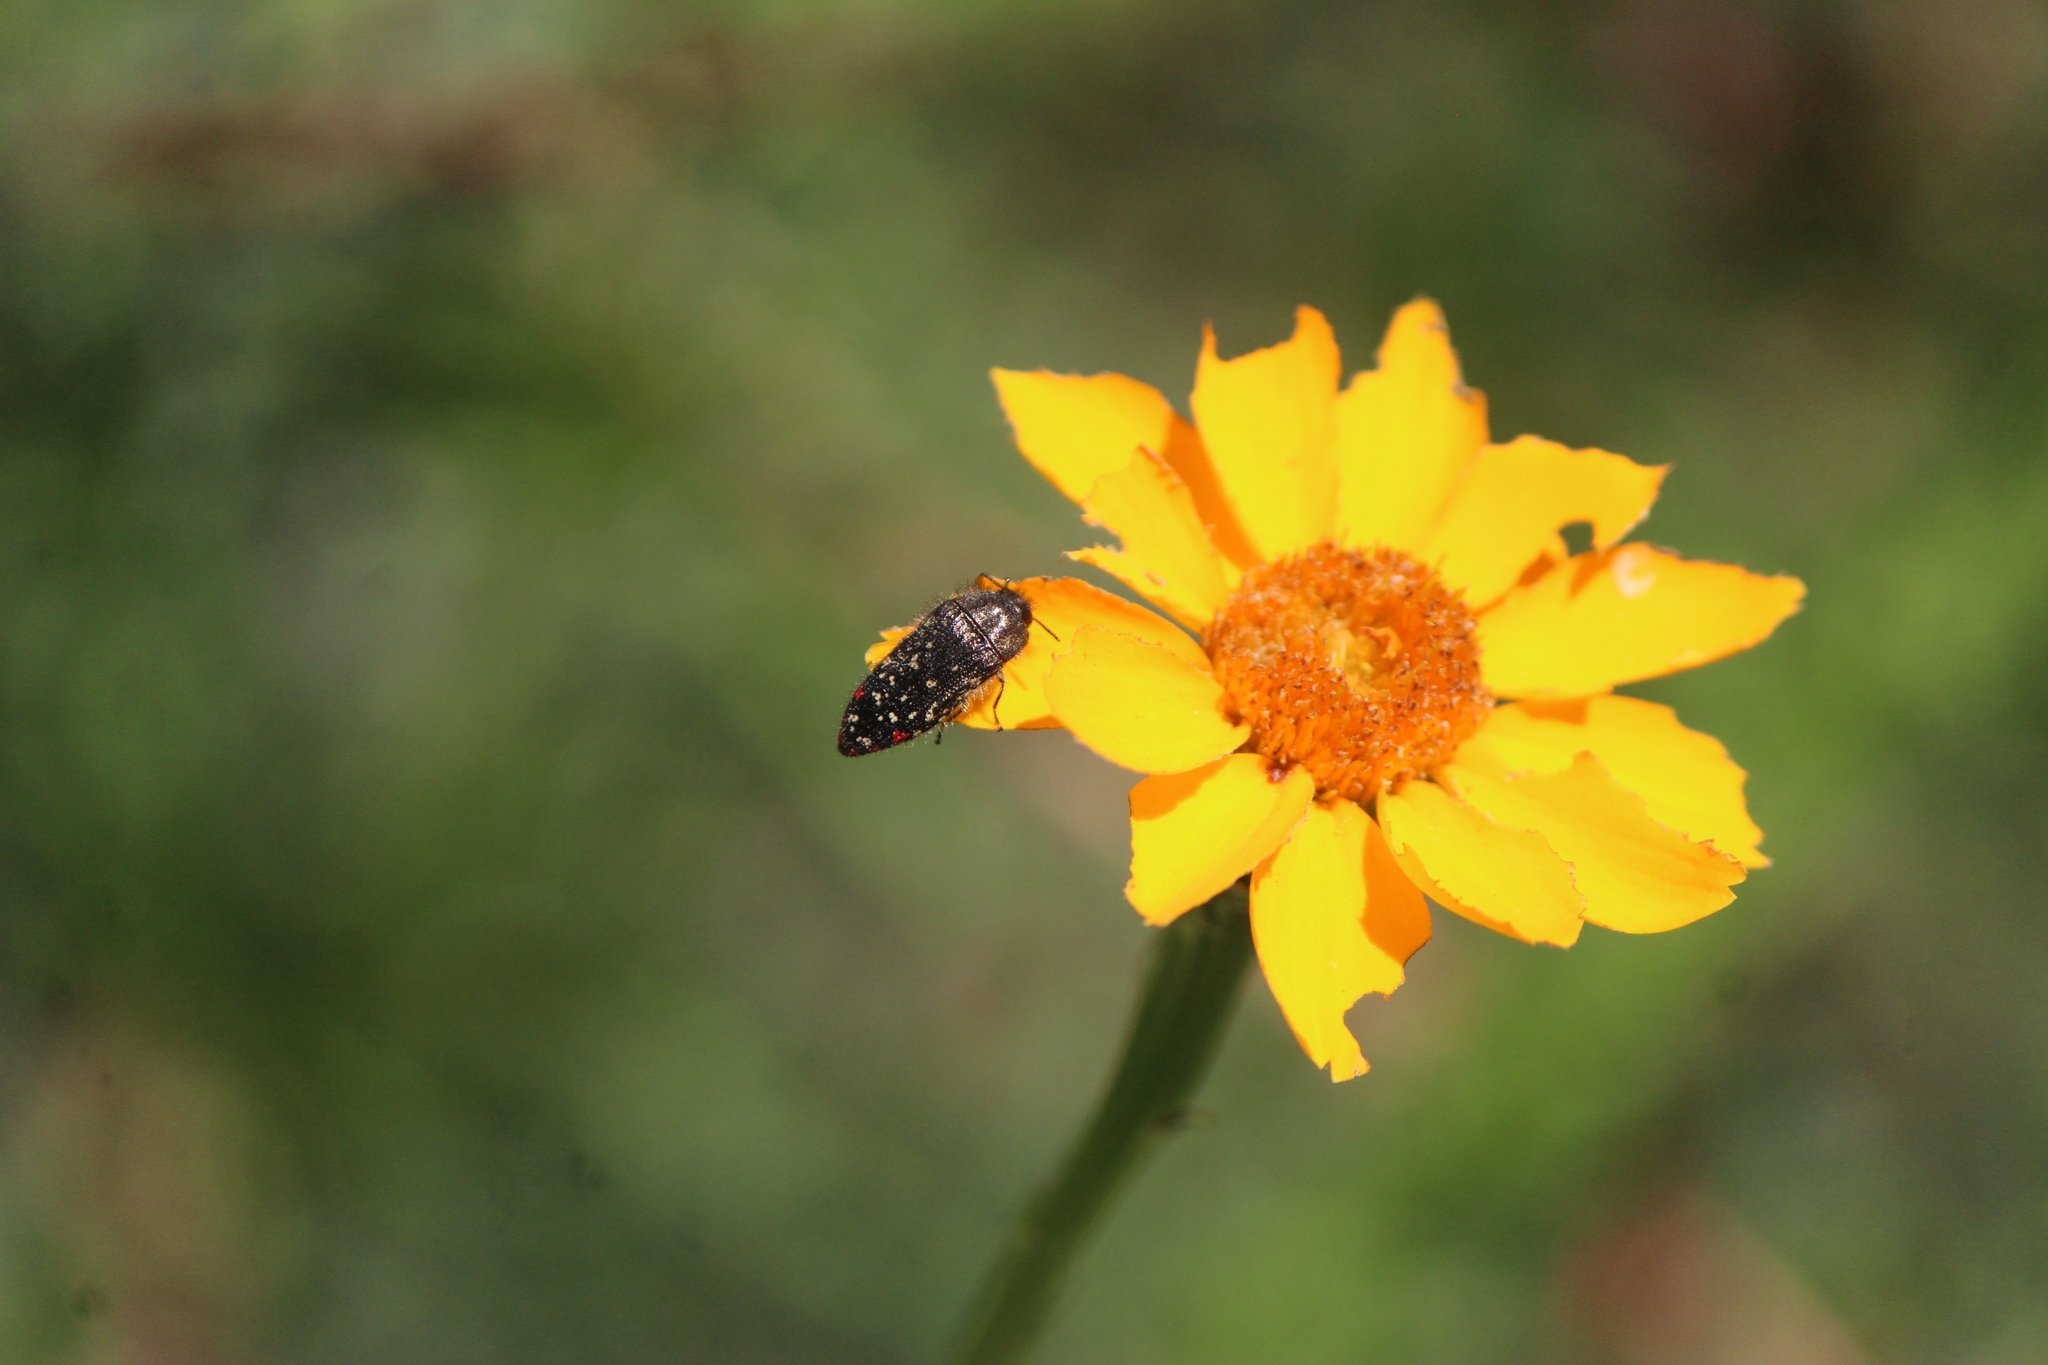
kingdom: Animalia
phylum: Arthropoda
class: Insecta
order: Coleoptera
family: Buprestidae
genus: Acmaeodera
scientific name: Acmaeodera mudgei
